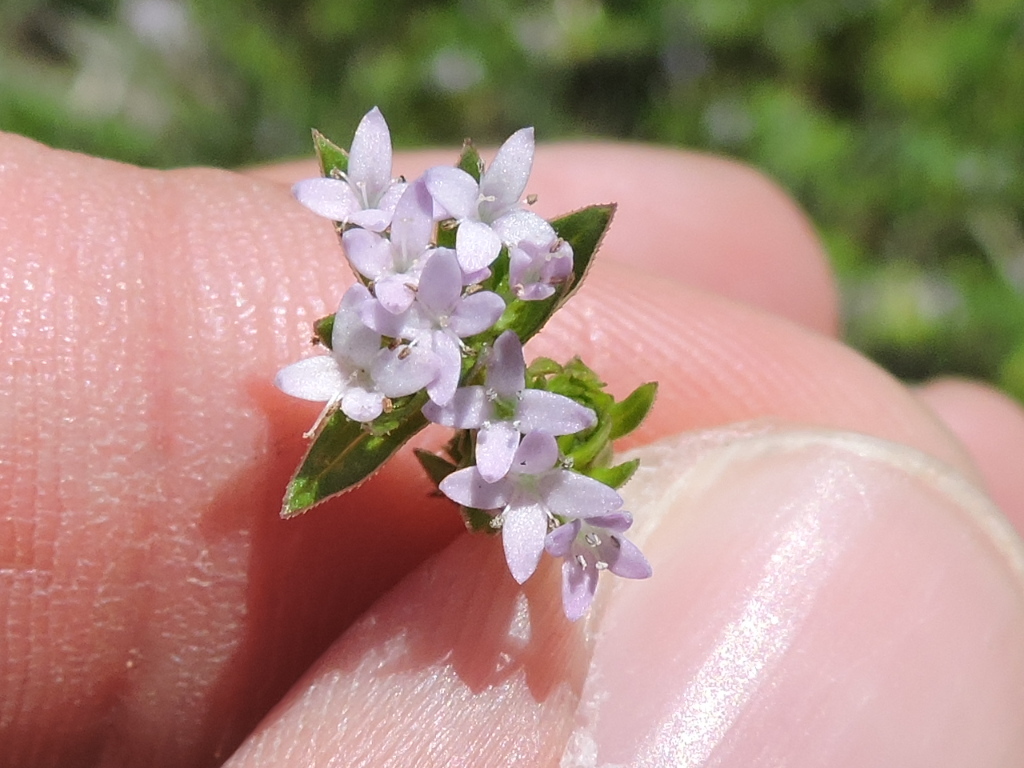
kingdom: Plantae
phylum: Tracheophyta
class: Magnoliopsida
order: Gentianales
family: Rubiaceae
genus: Sherardia
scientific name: Sherardia arvensis
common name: Field madder
